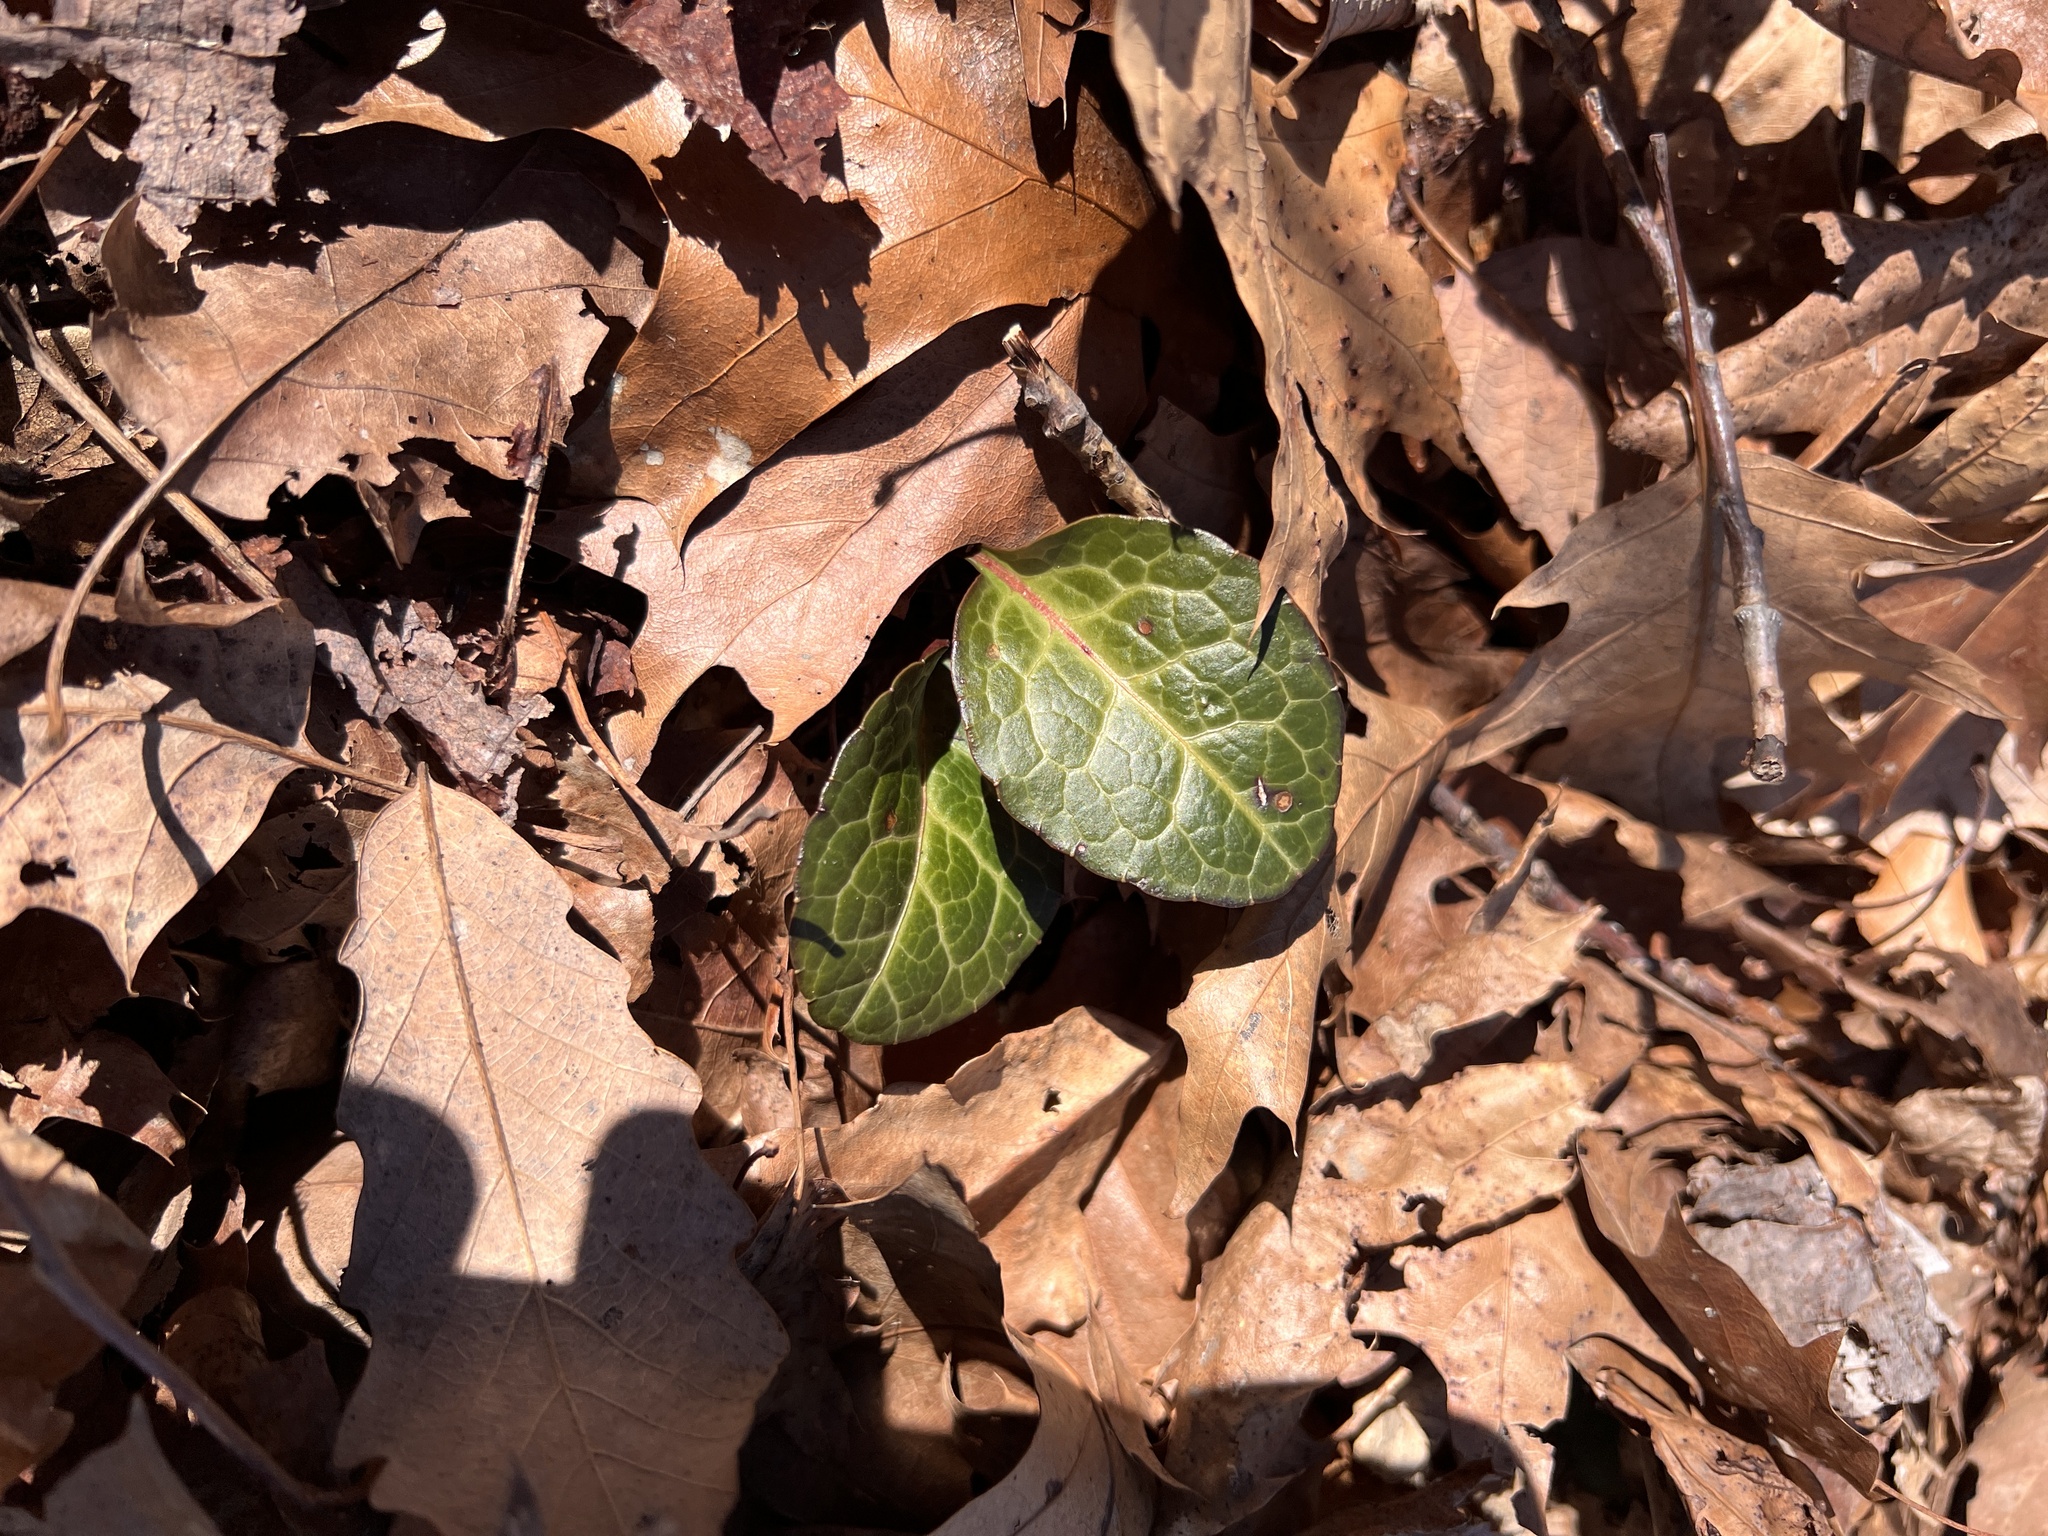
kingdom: Plantae
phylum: Tracheophyta
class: Magnoliopsida
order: Ericales
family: Ericaceae
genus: Pyrola
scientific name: Pyrola americana
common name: American wintergreen
